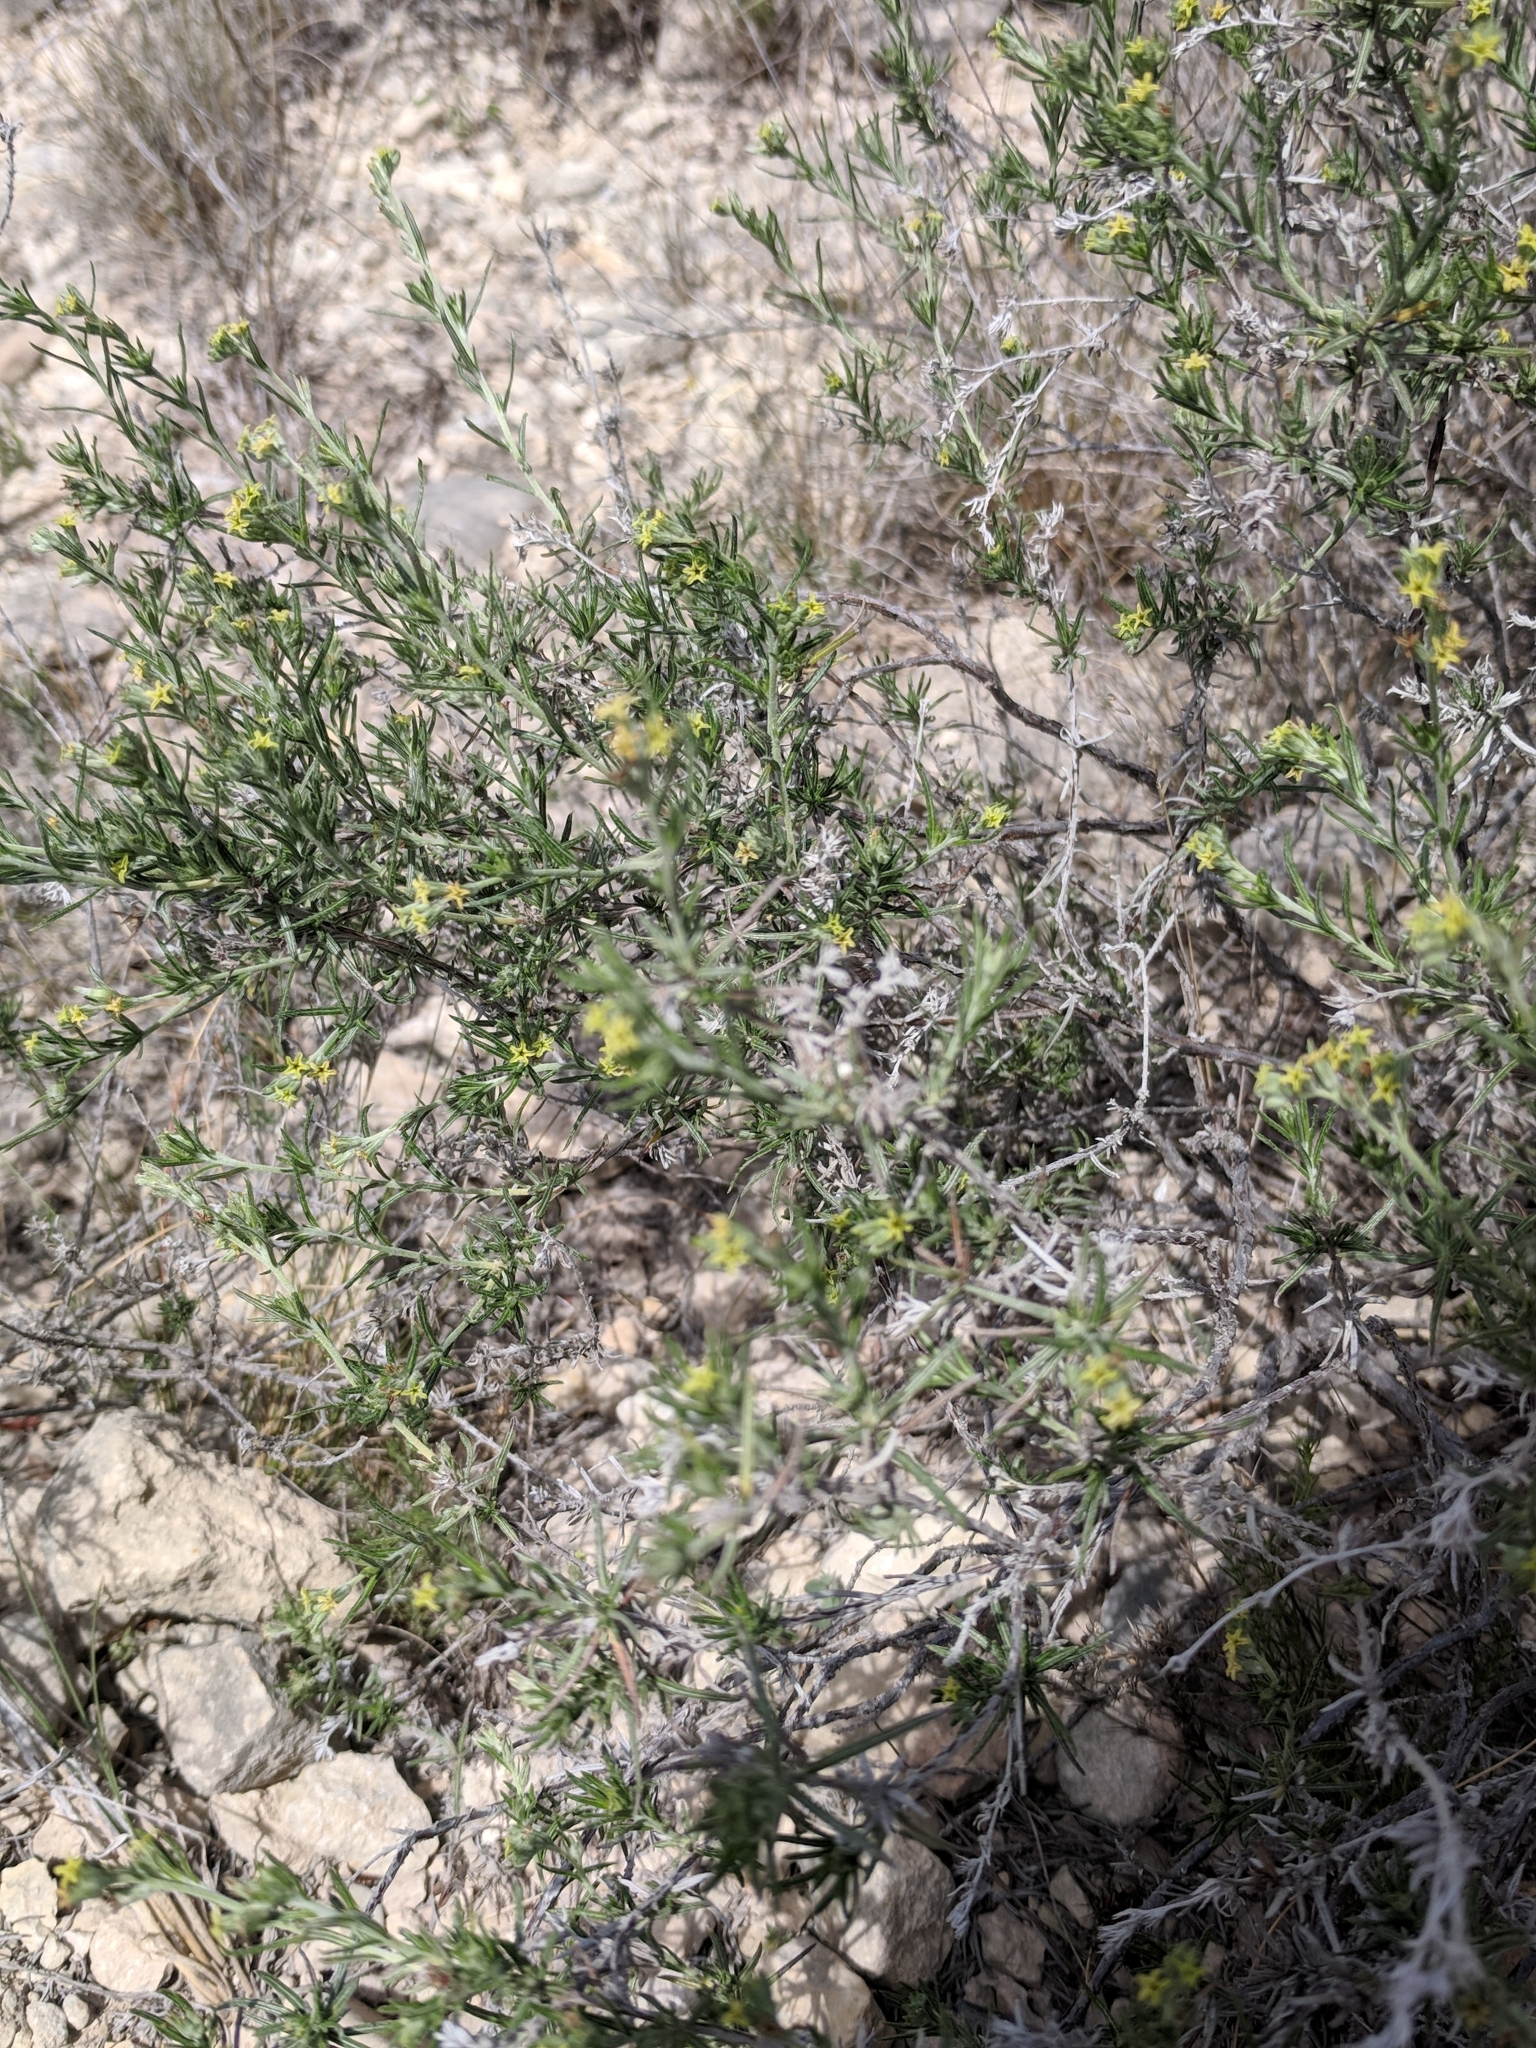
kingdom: Plantae
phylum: Tracheophyta
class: Magnoliopsida
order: Boraginales
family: Heliotropiaceae
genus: Euploca
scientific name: Euploca torreyi
